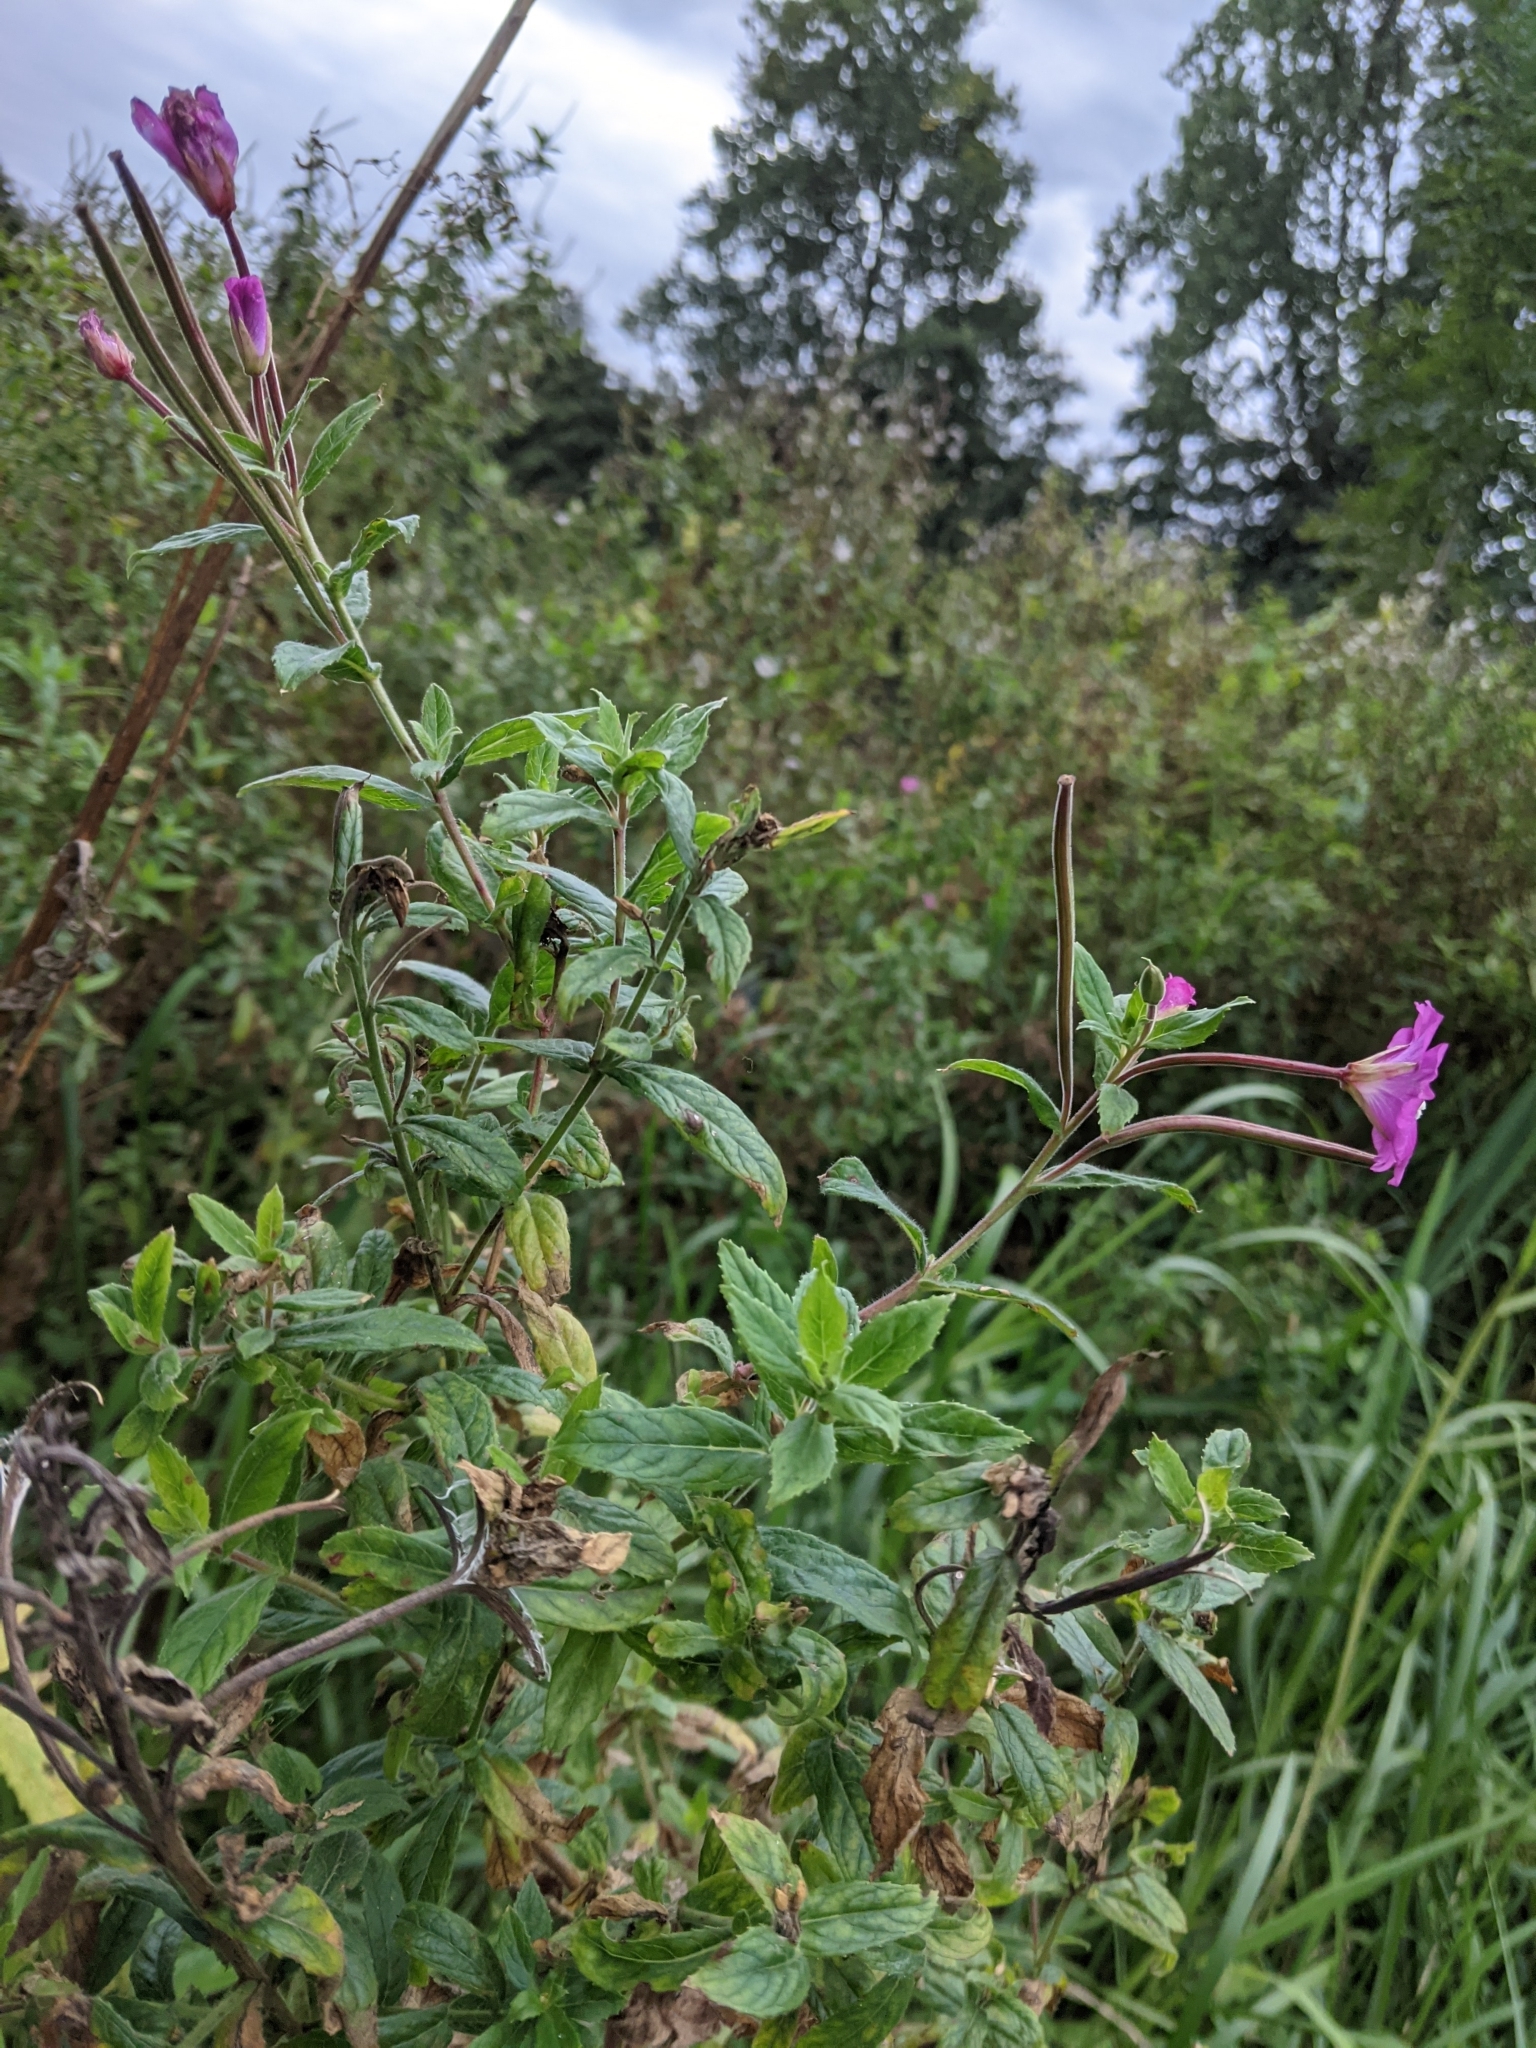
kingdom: Plantae
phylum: Tracheophyta
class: Magnoliopsida
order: Myrtales
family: Onagraceae
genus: Epilobium
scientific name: Epilobium hirsutum
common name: Great willowherb
